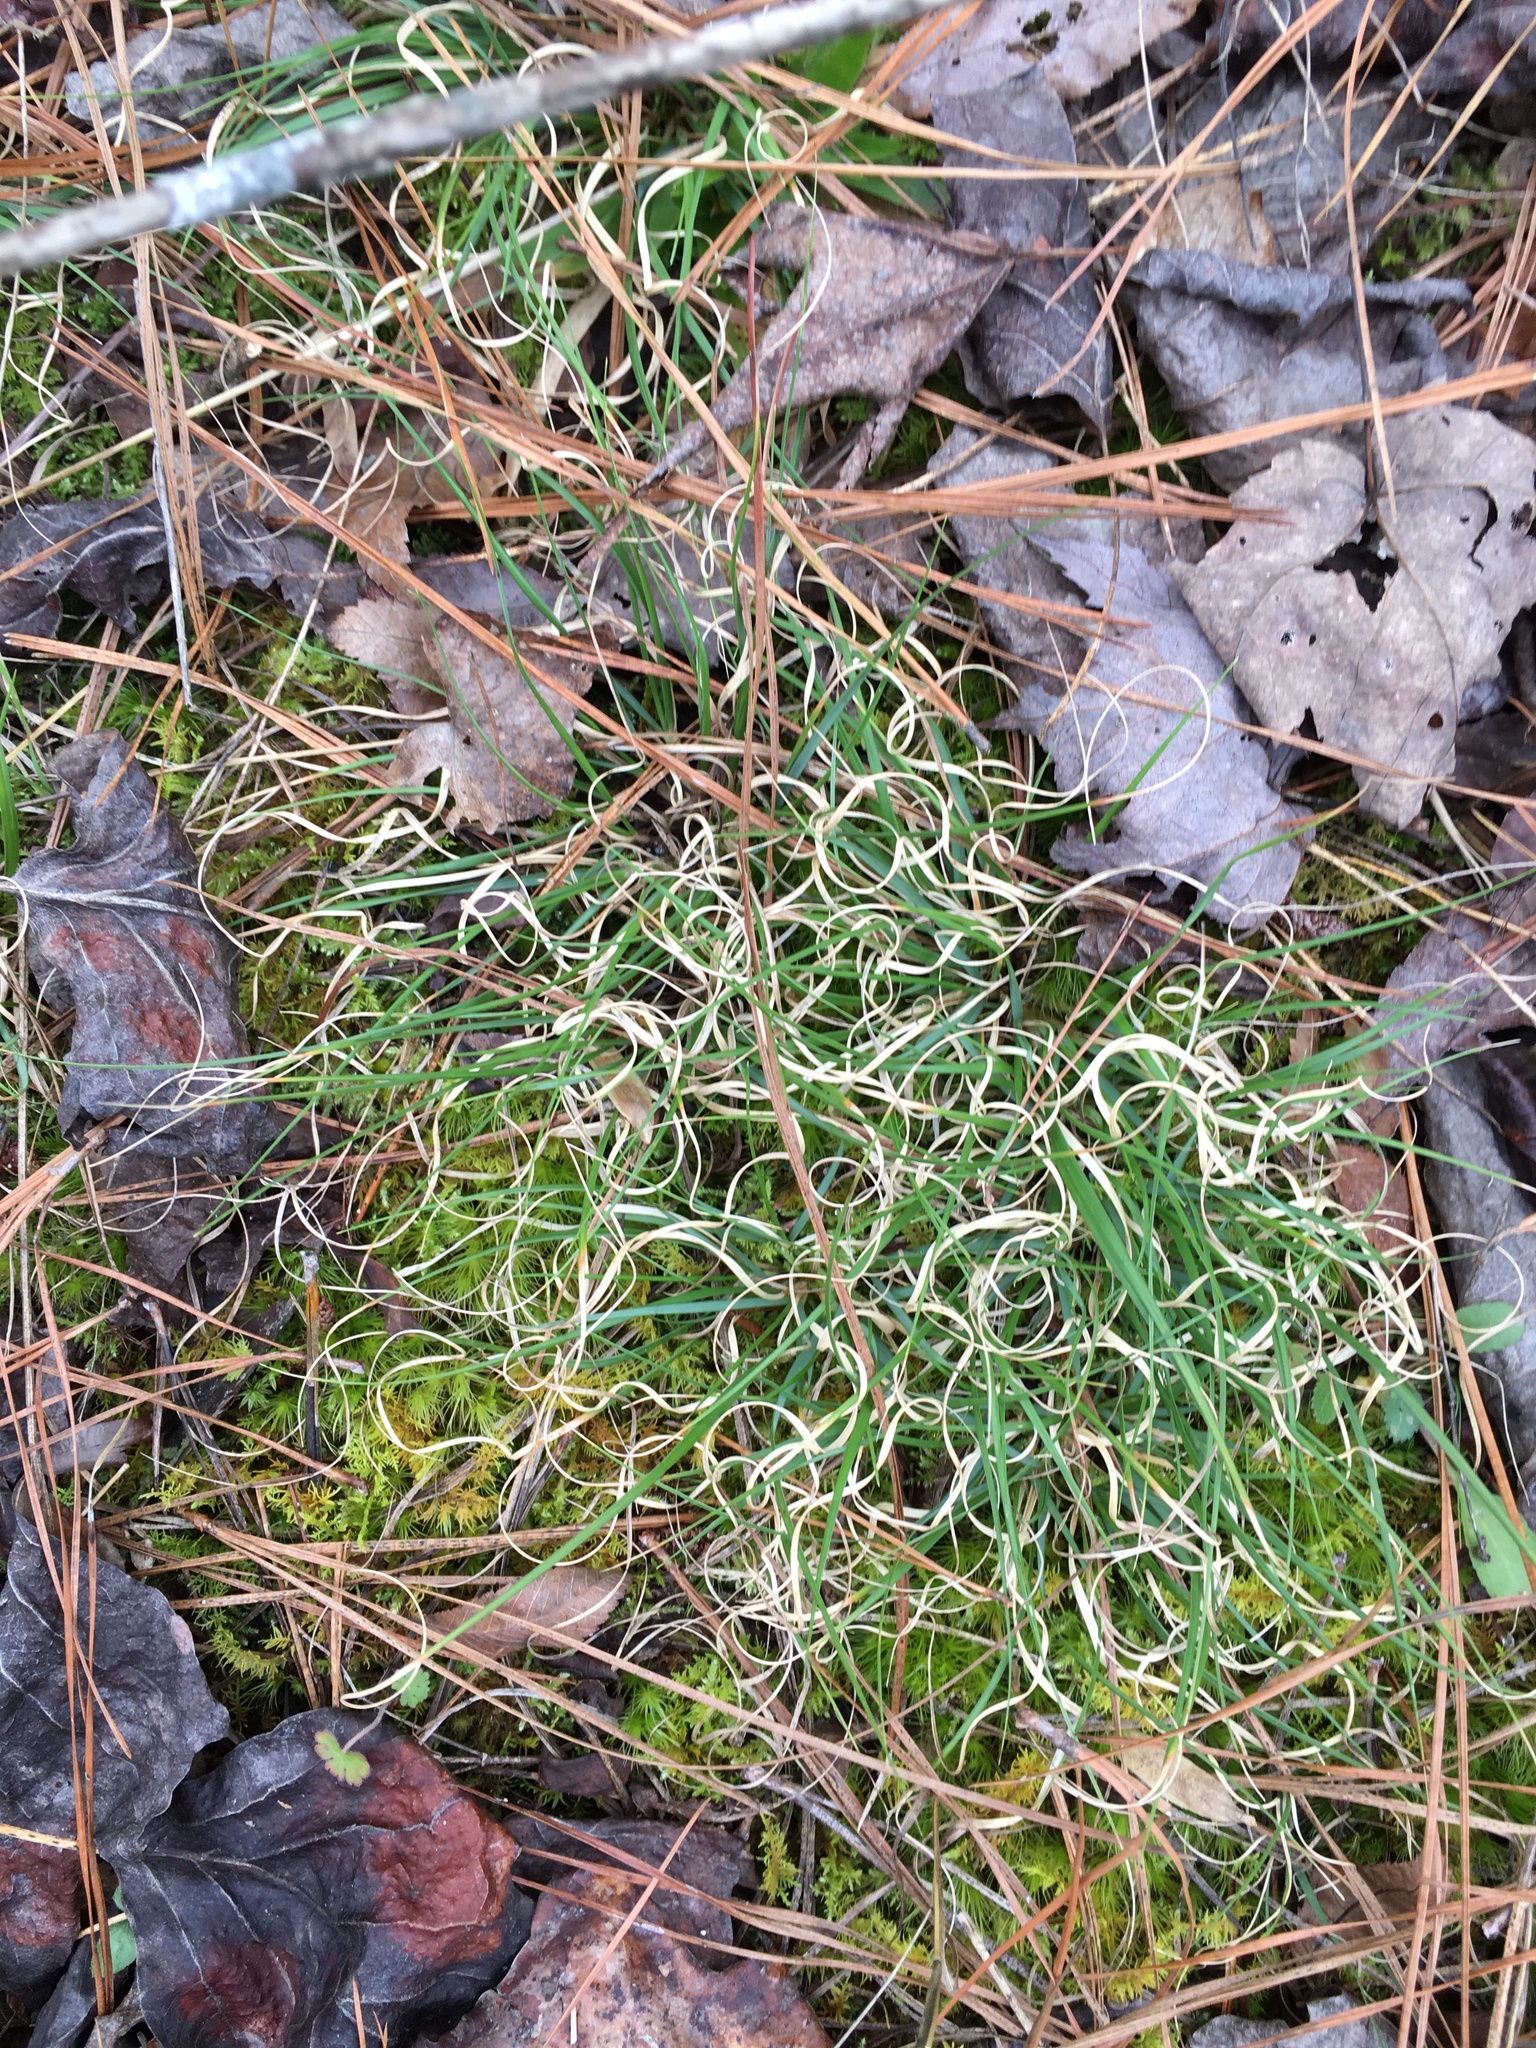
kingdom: Plantae
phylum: Tracheophyta
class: Liliopsida
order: Poales
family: Poaceae
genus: Danthonia
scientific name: Danthonia spicata
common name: Common wild oatgrass
